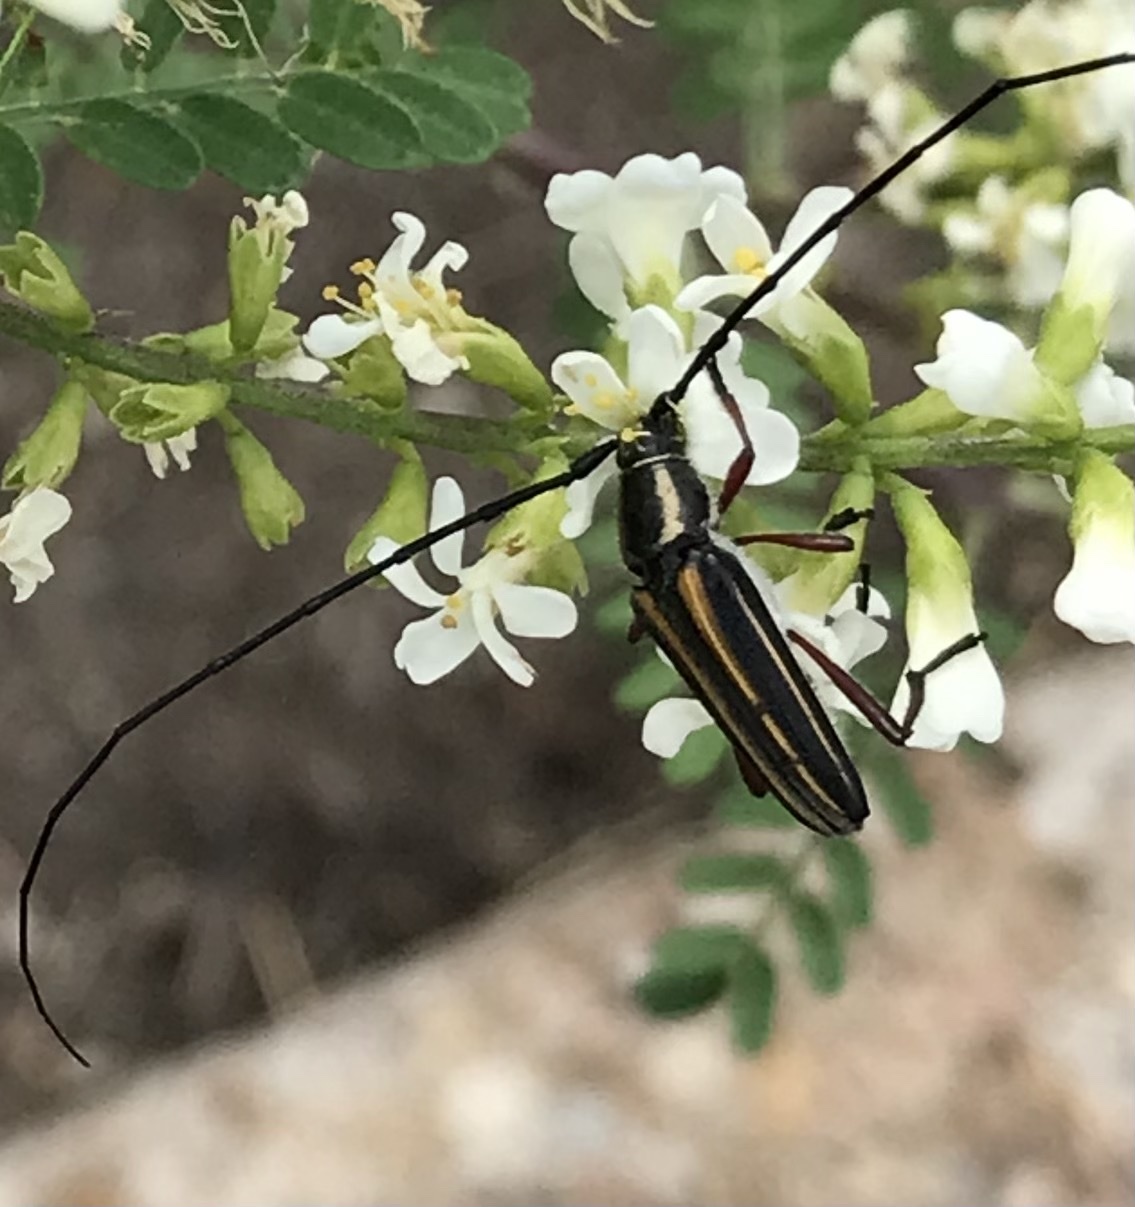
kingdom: Animalia
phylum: Arthropoda
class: Insecta
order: Coleoptera
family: Cerambycidae
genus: Sphaenothecus
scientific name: Sphaenothecus bilineatus
